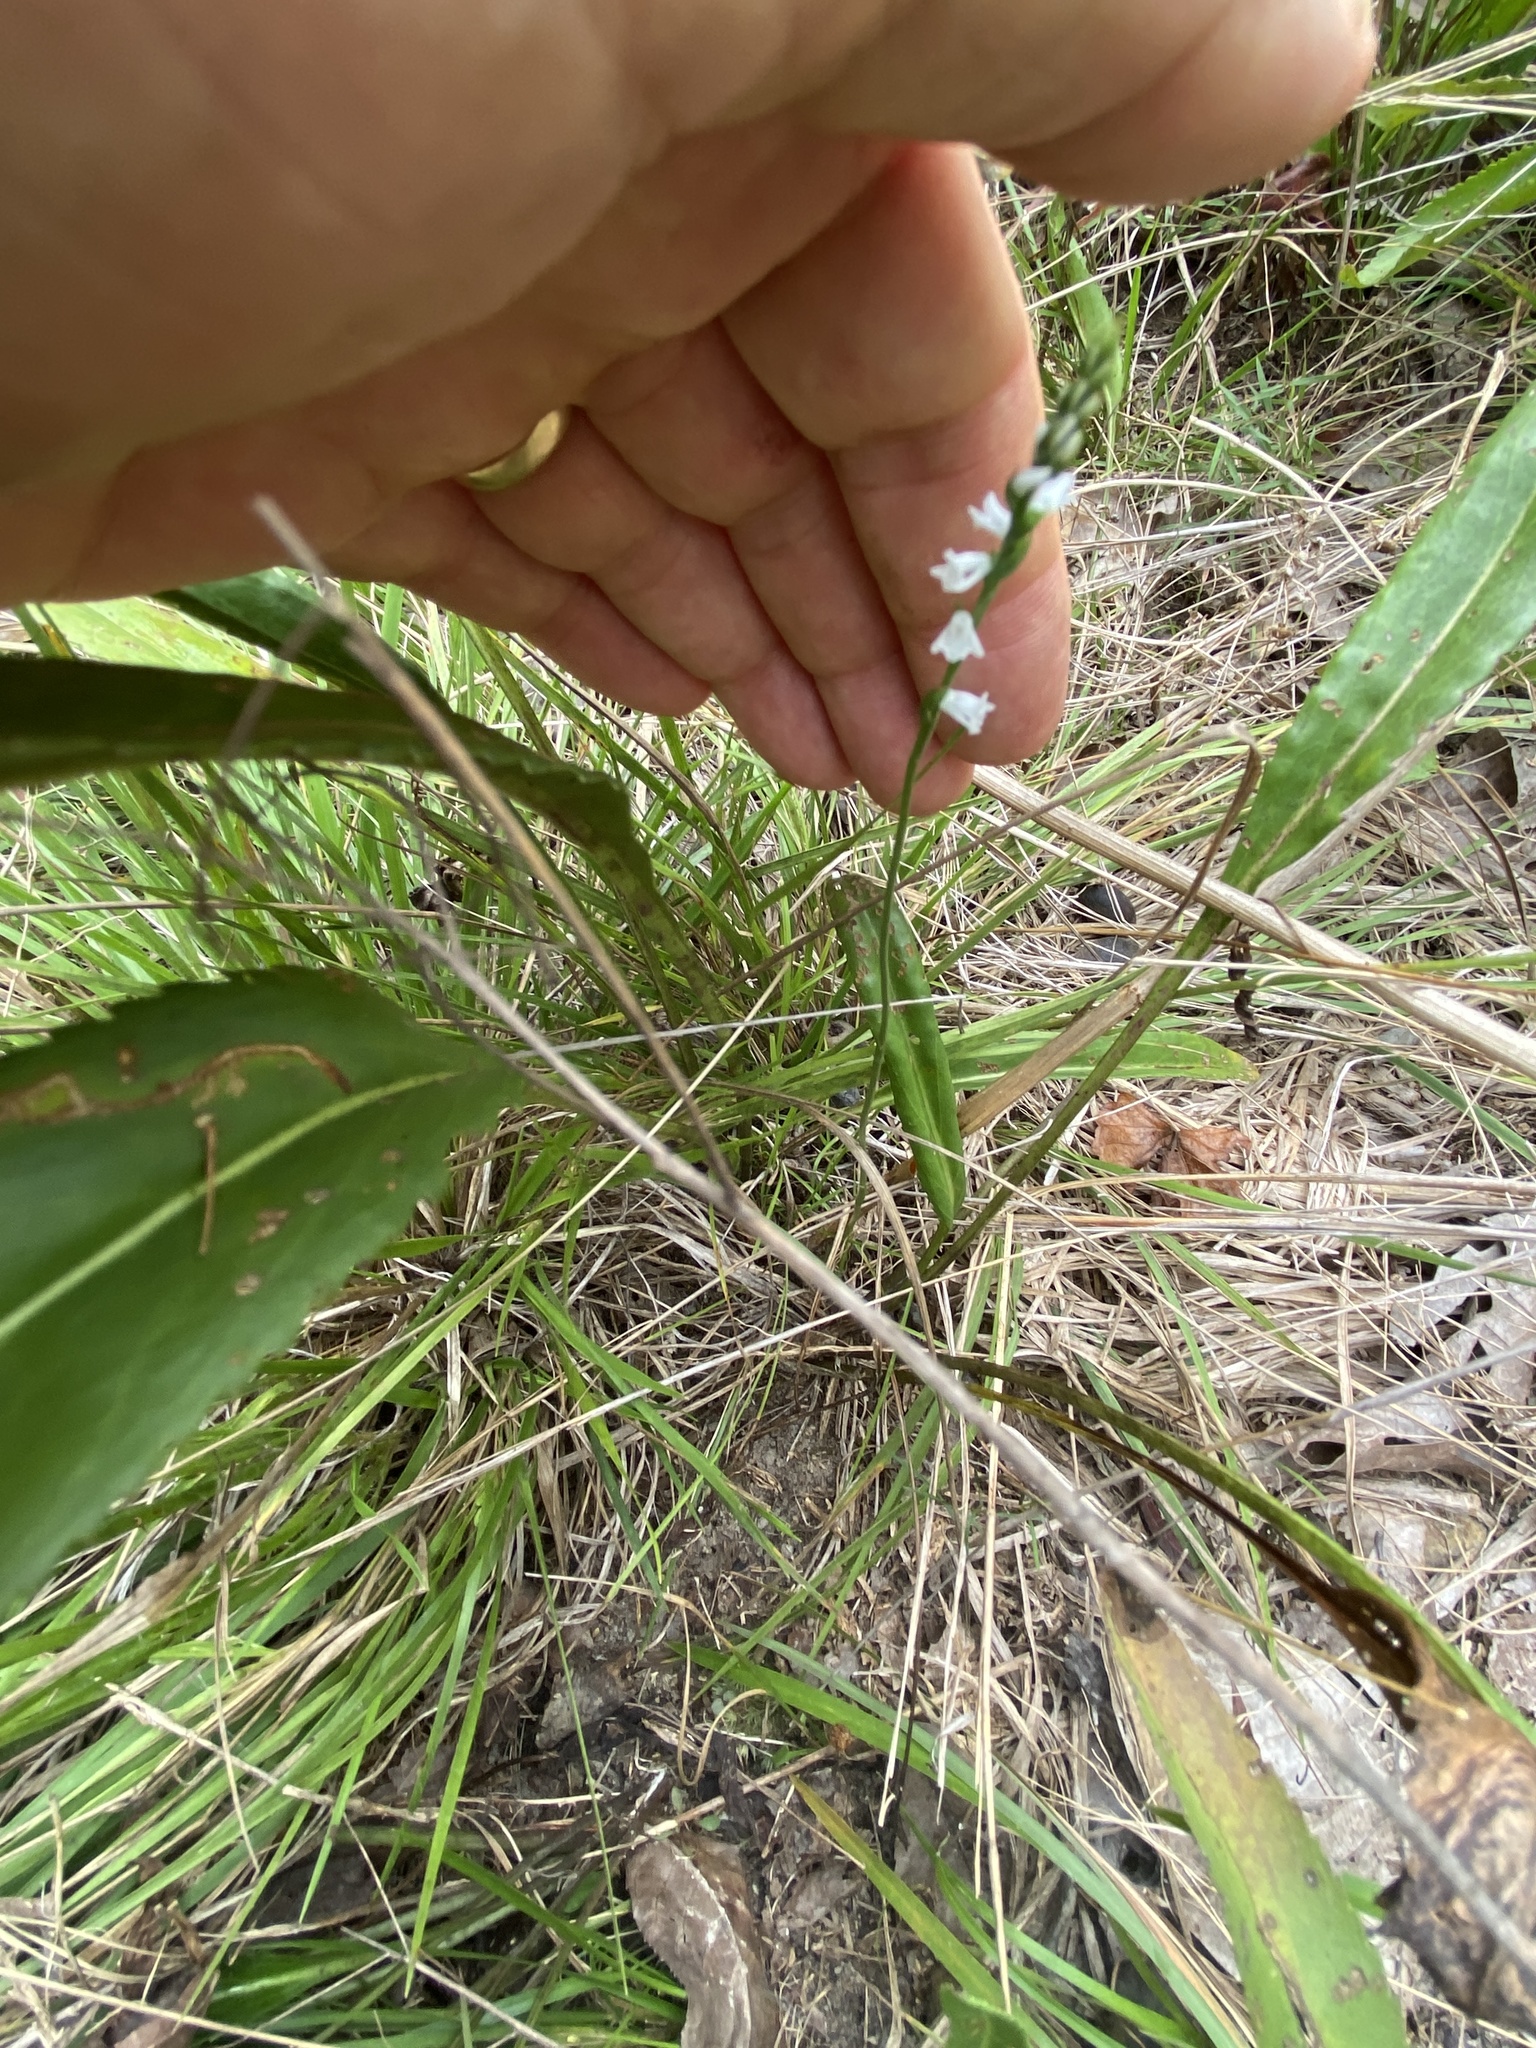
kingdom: Plantae
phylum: Tracheophyta
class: Liliopsida
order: Asparagales
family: Orchidaceae
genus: Spiranthes
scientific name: Spiranthes tuberosa
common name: Little ladies'-tresses
